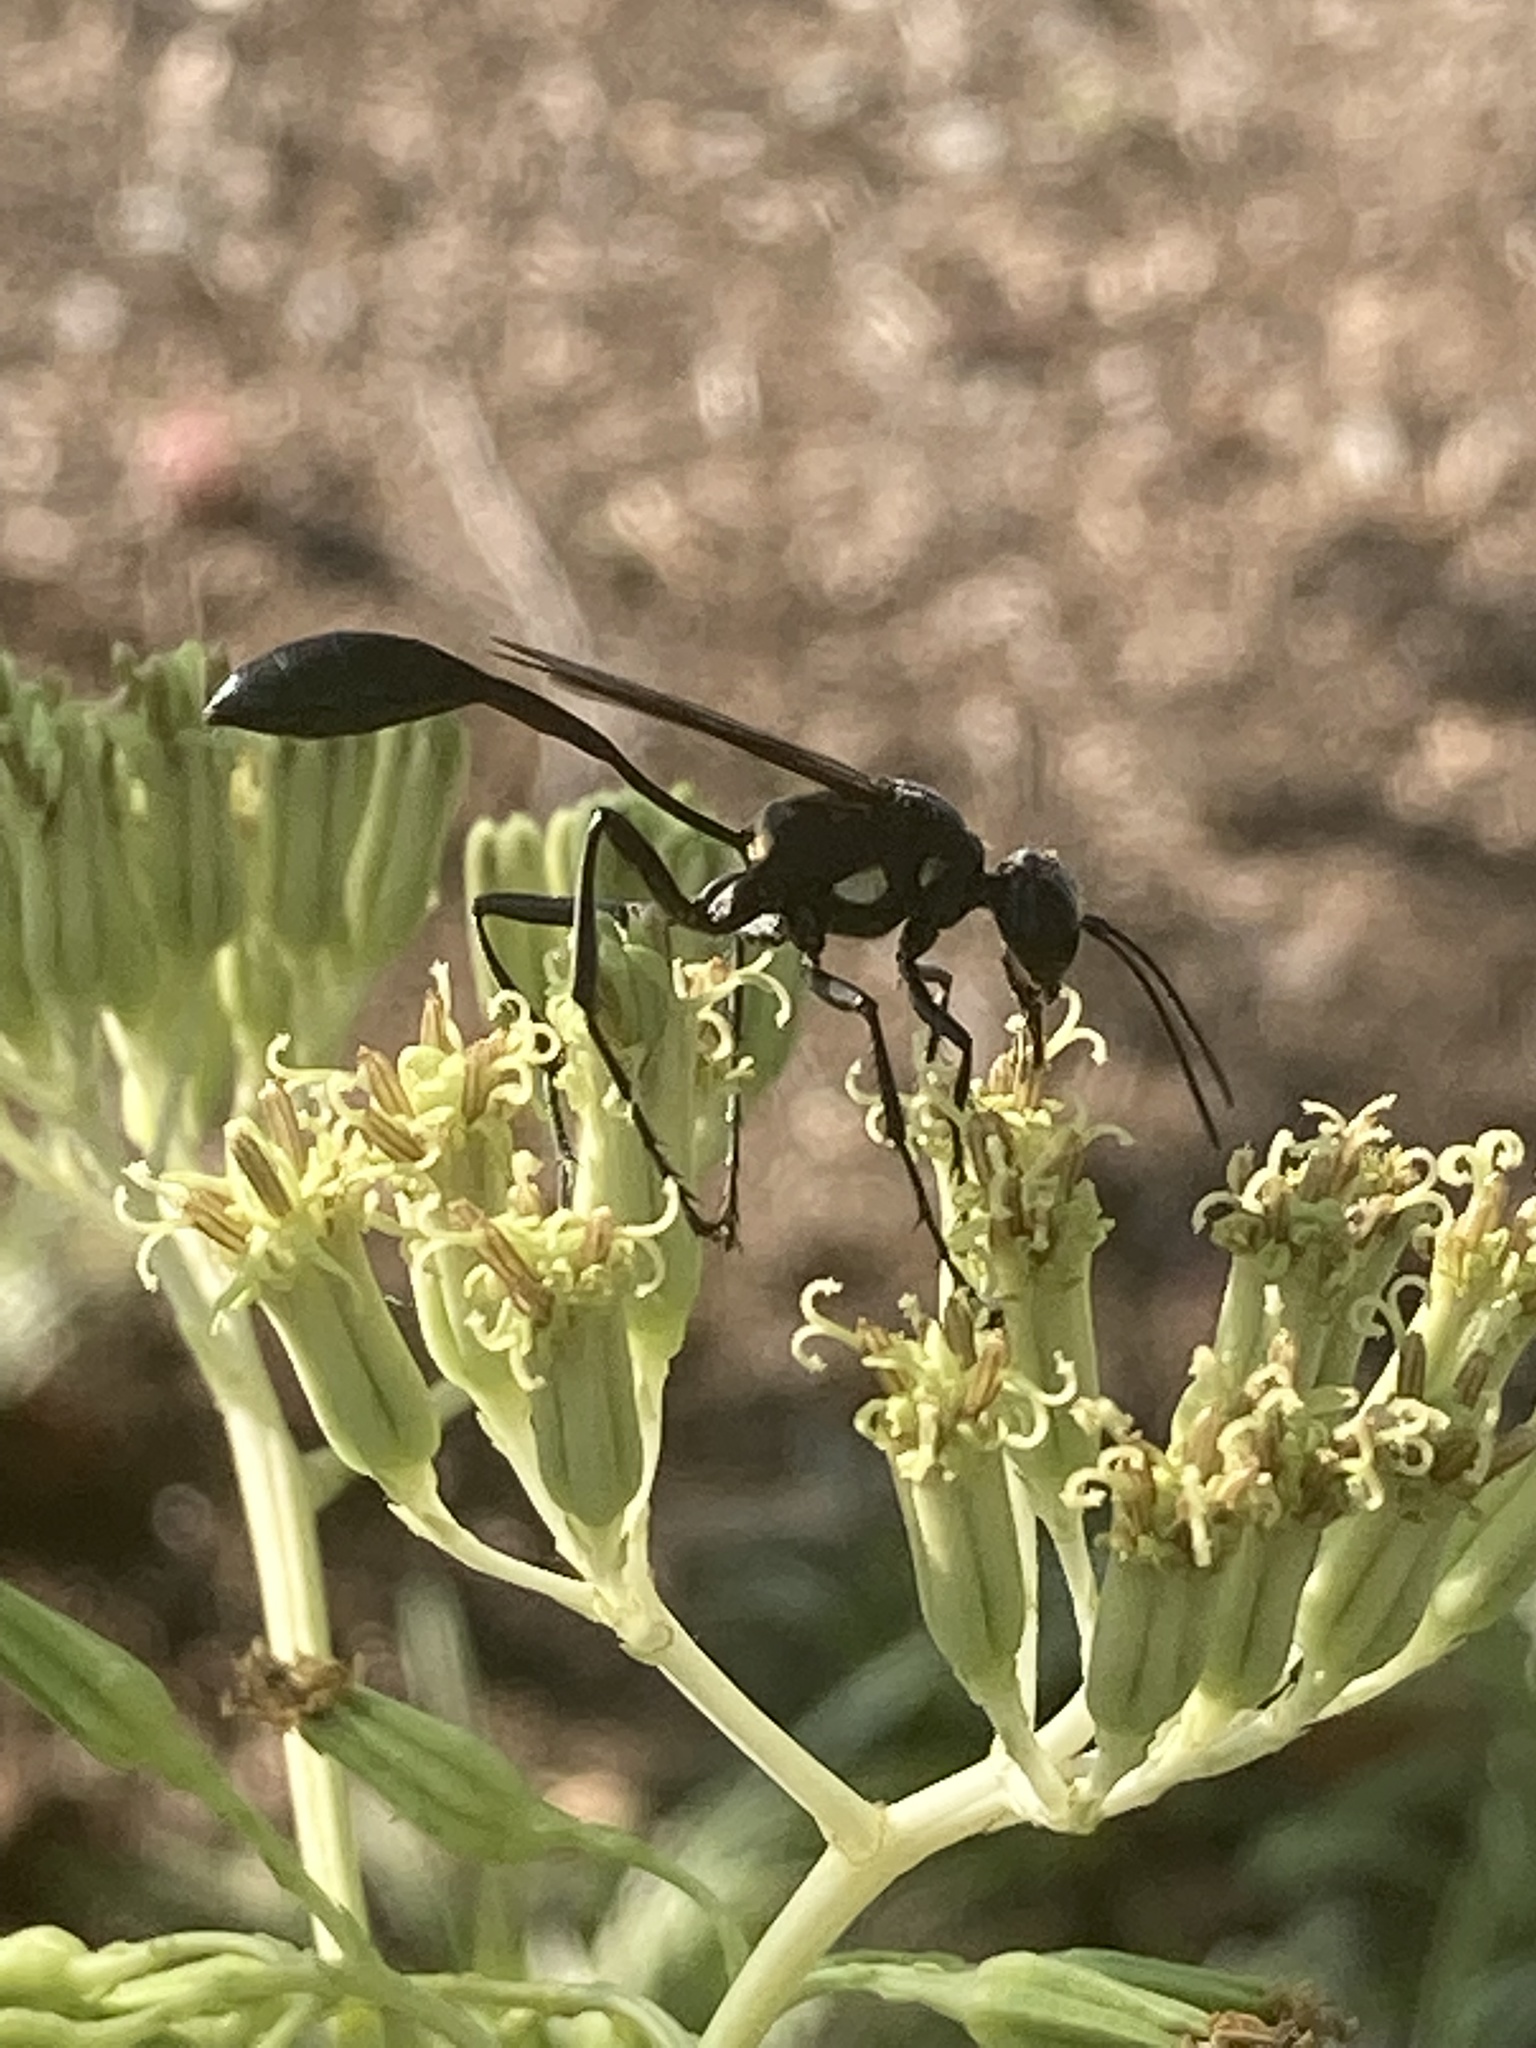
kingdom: Animalia
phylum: Arthropoda
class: Insecta
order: Hymenoptera
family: Sphecidae
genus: Eremnophila
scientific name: Eremnophila aureonotata
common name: Gold-marked thread-waisted wasp
